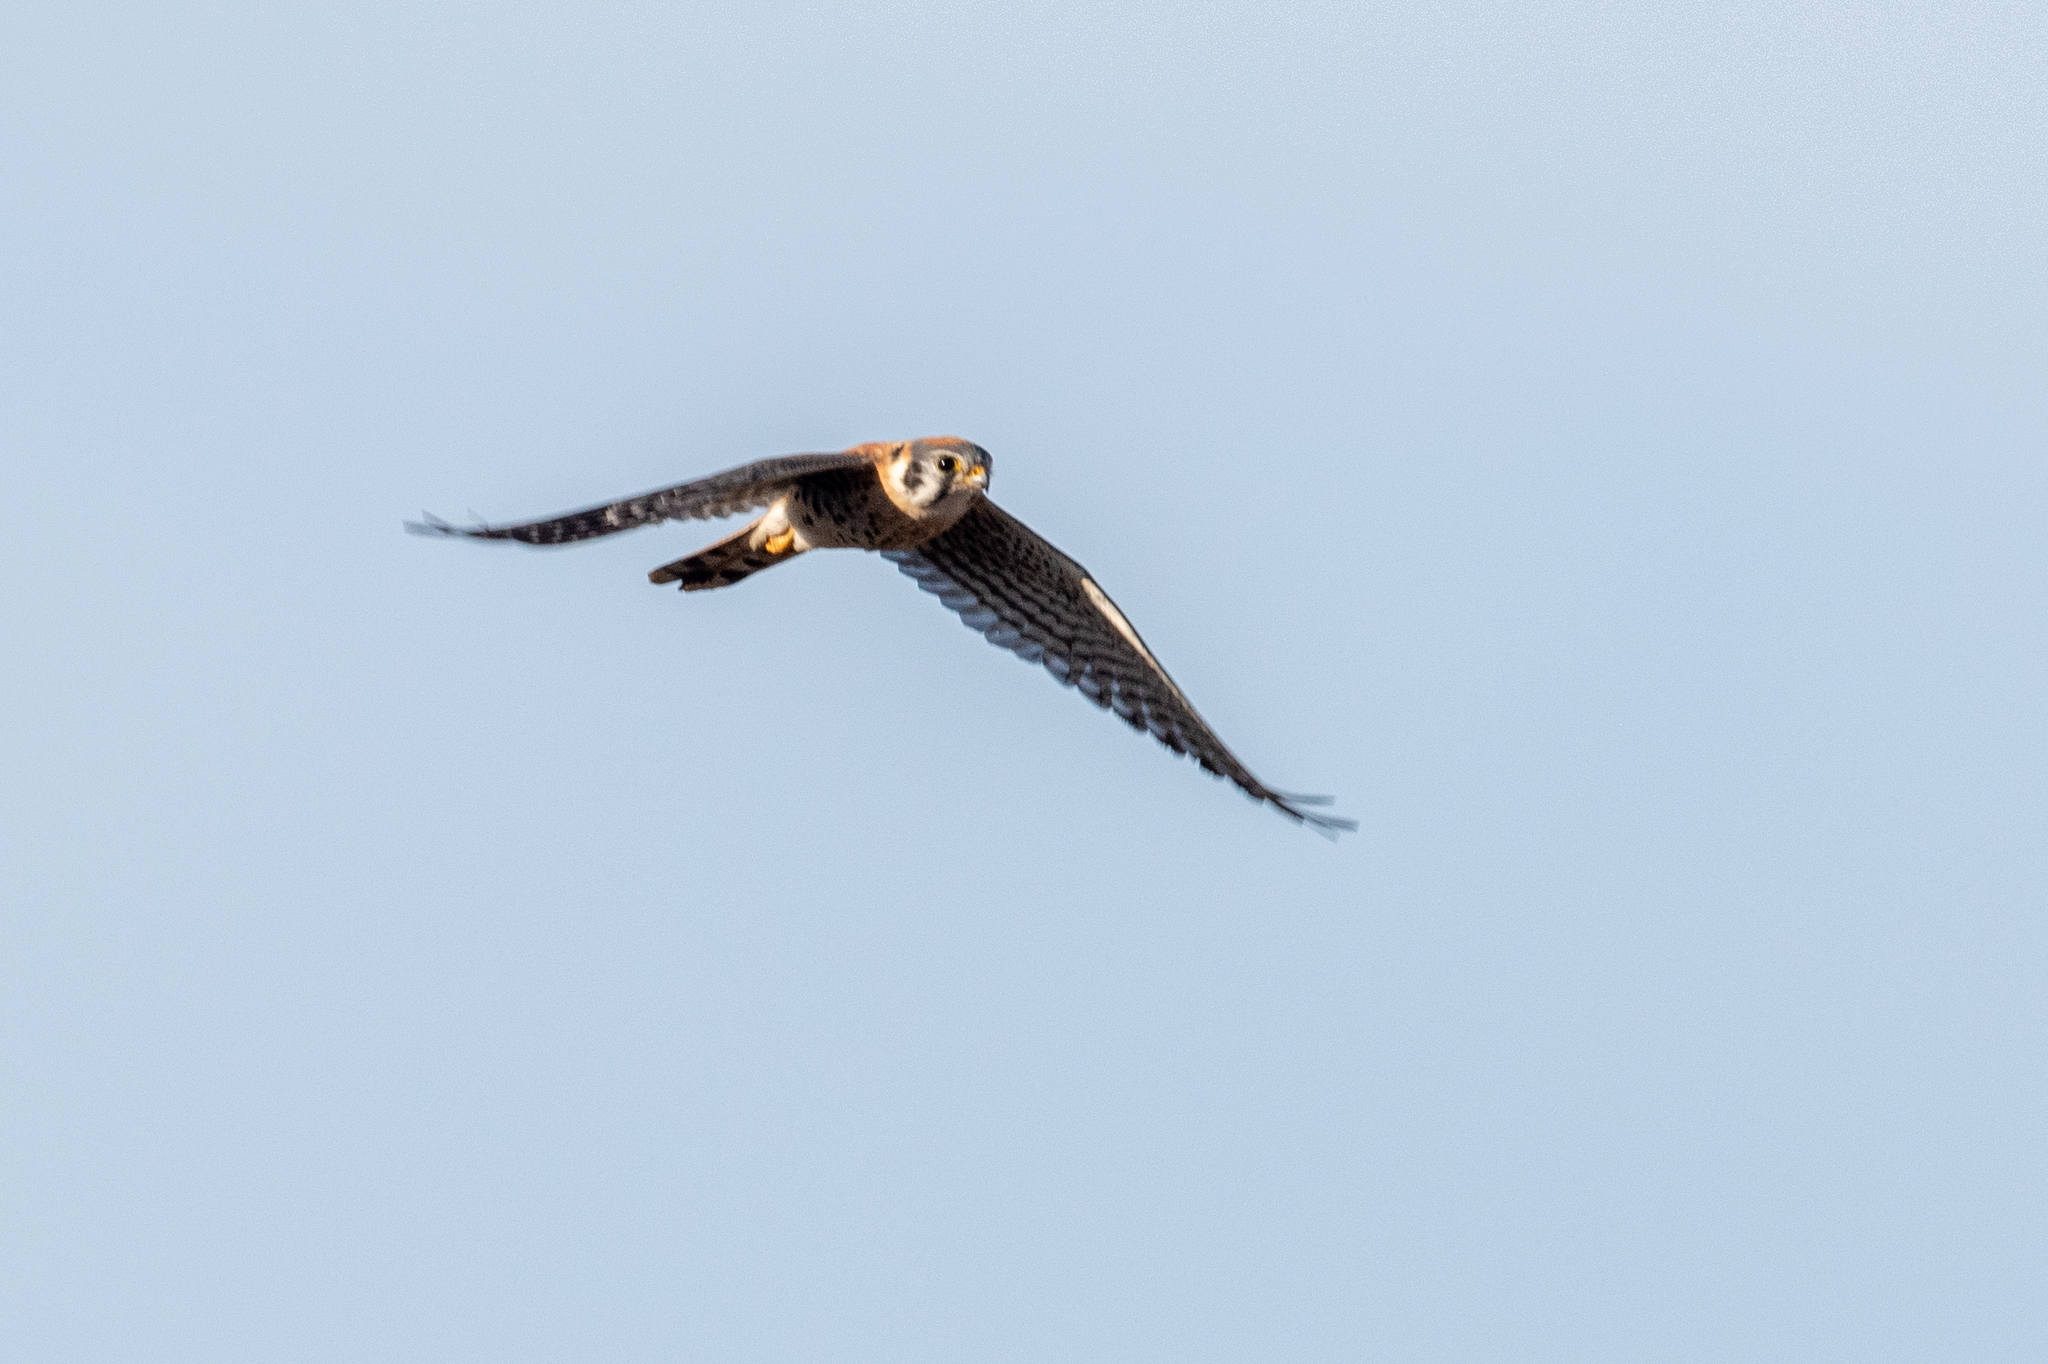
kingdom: Animalia
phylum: Chordata
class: Aves
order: Falconiformes
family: Falconidae
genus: Falco
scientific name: Falco sparverius
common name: American kestrel
